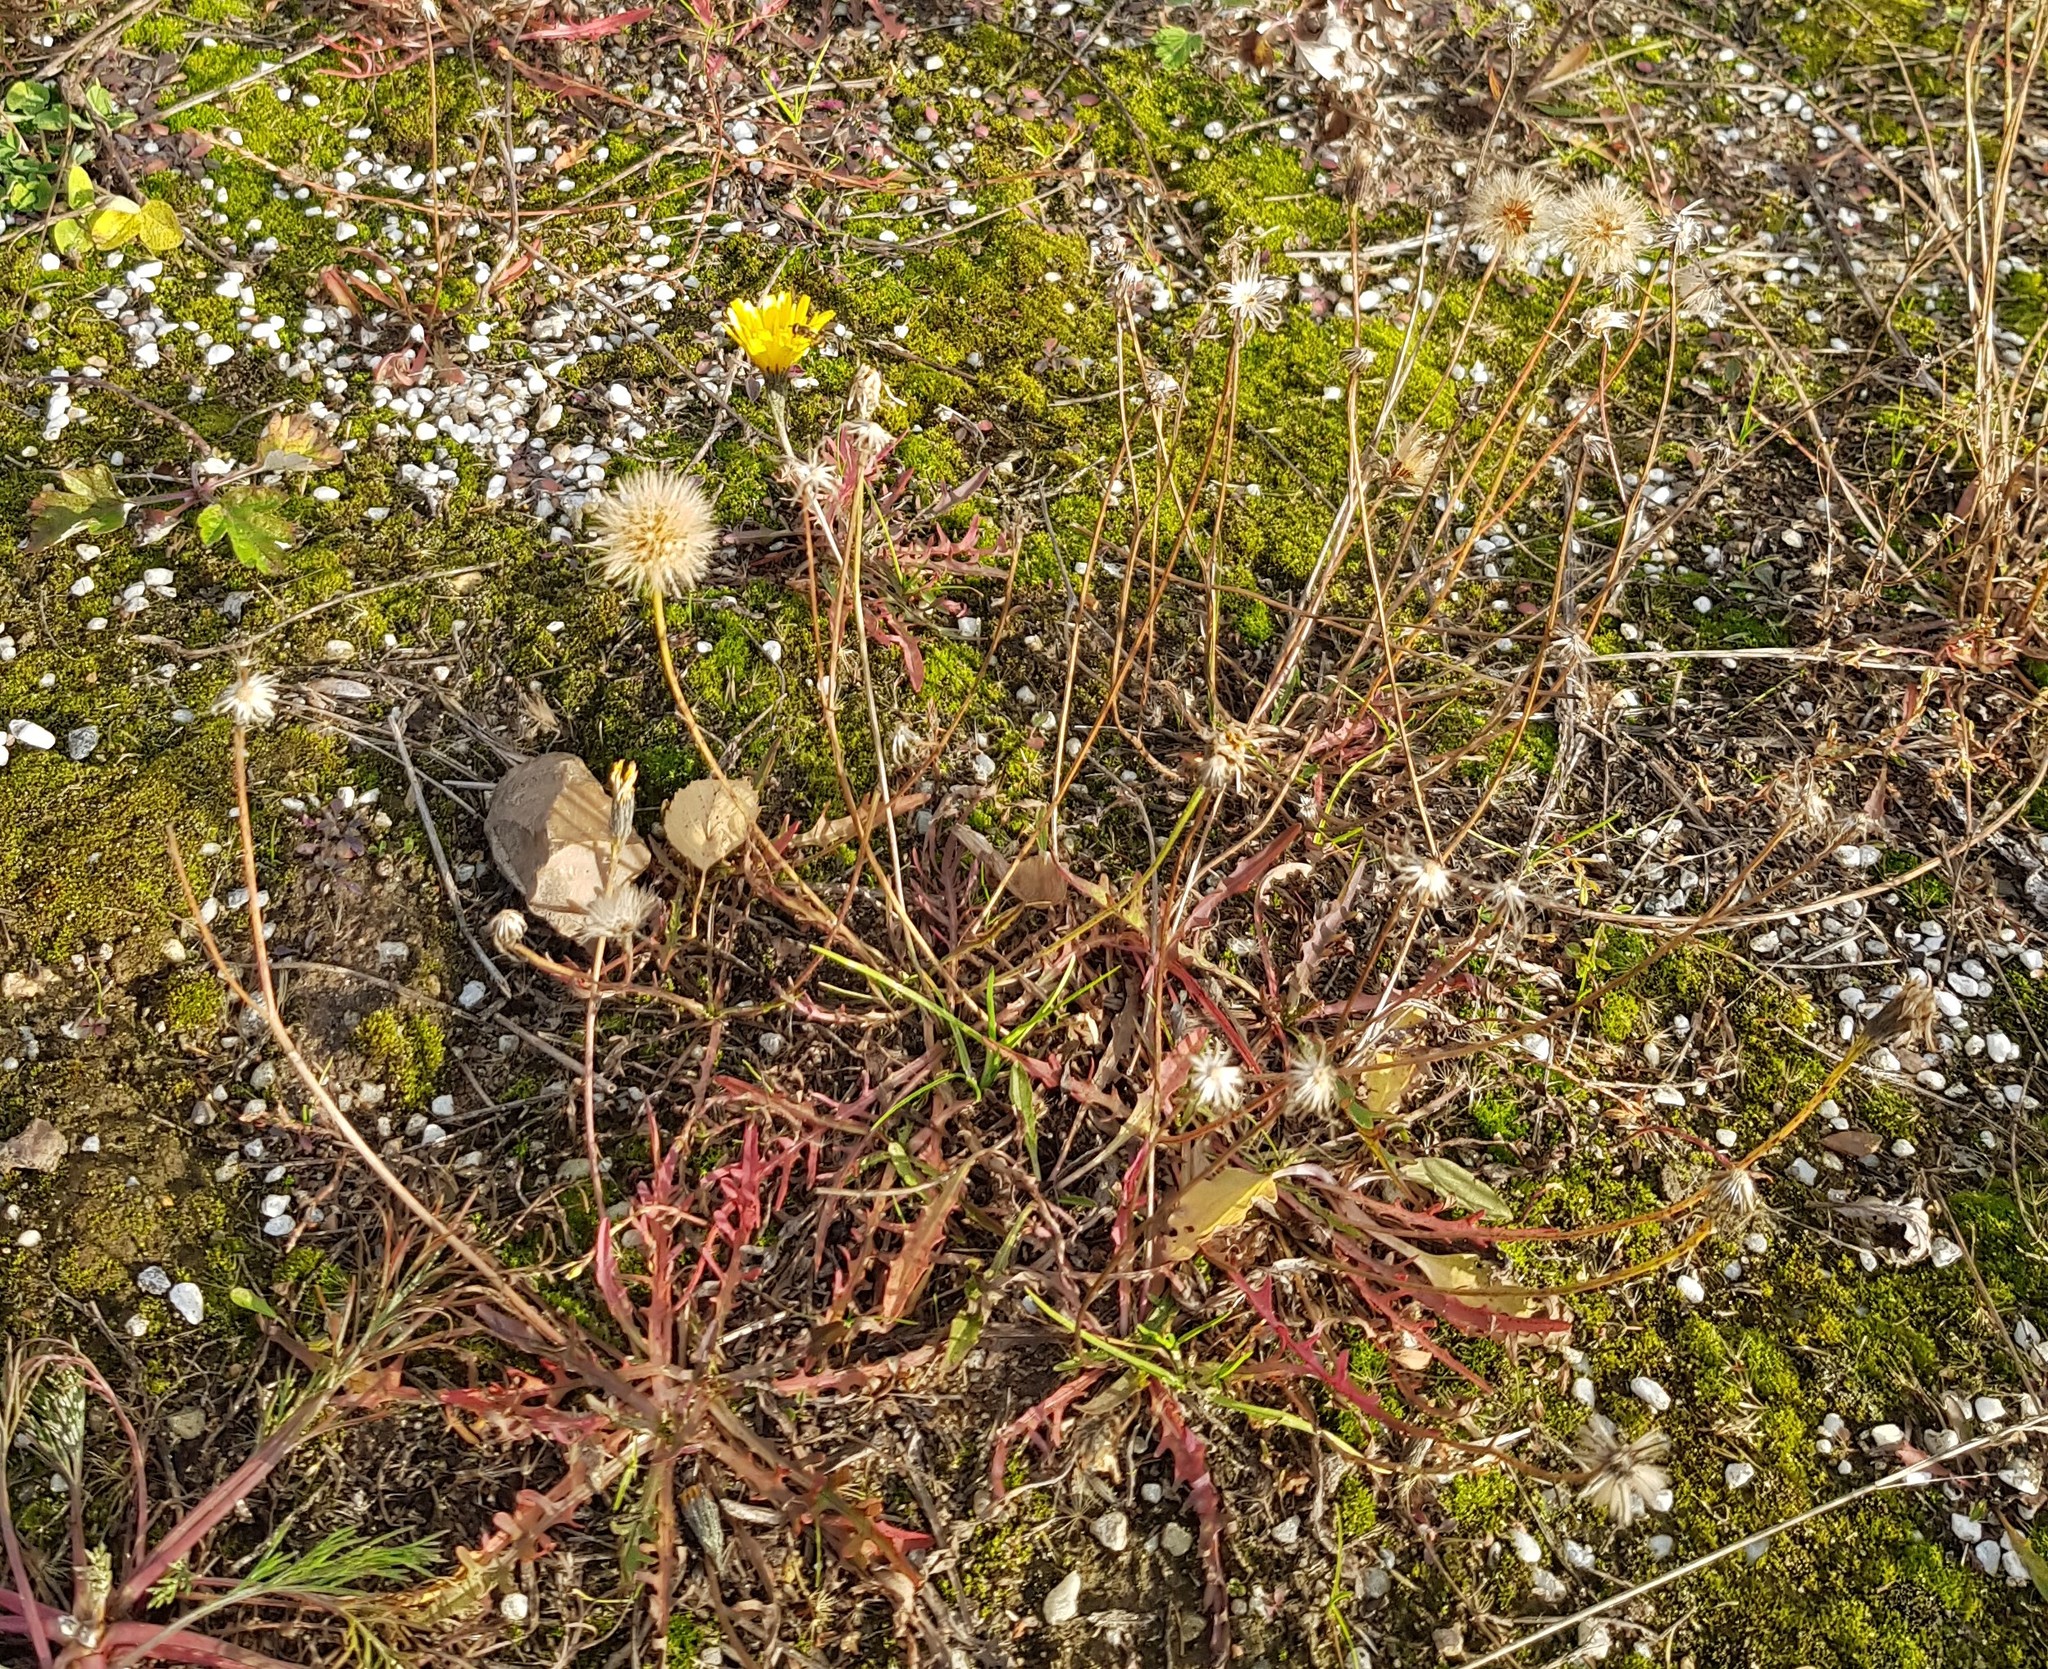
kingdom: Plantae
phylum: Tracheophyta
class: Magnoliopsida
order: Asterales
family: Asteraceae
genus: Scorzoneroides
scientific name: Scorzoneroides autumnalis
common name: Autumn hawkbit
